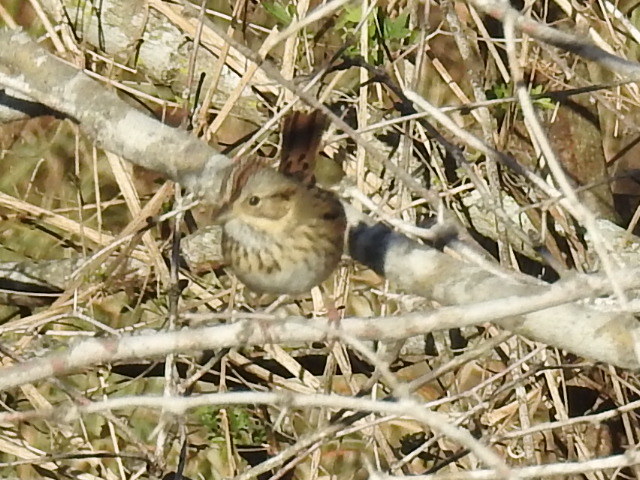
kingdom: Animalia
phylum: Chordata
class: Aves
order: Passeriformes
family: Passerellidae
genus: Melospiza
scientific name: Melospiza lincolnii
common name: Lincoln's sparrow
